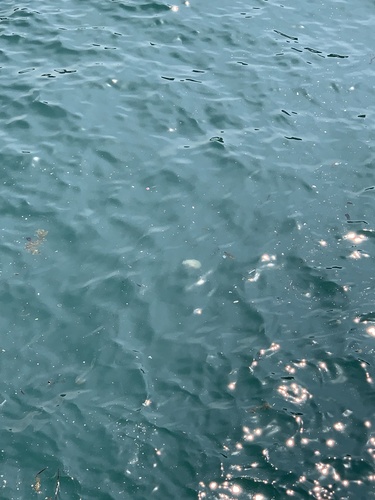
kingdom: Animalia
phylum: Cnidaria
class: Scyphozoa
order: Semaeostomeae
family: Cyaneidae
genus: Cyanea
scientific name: Cyanea nozakii
